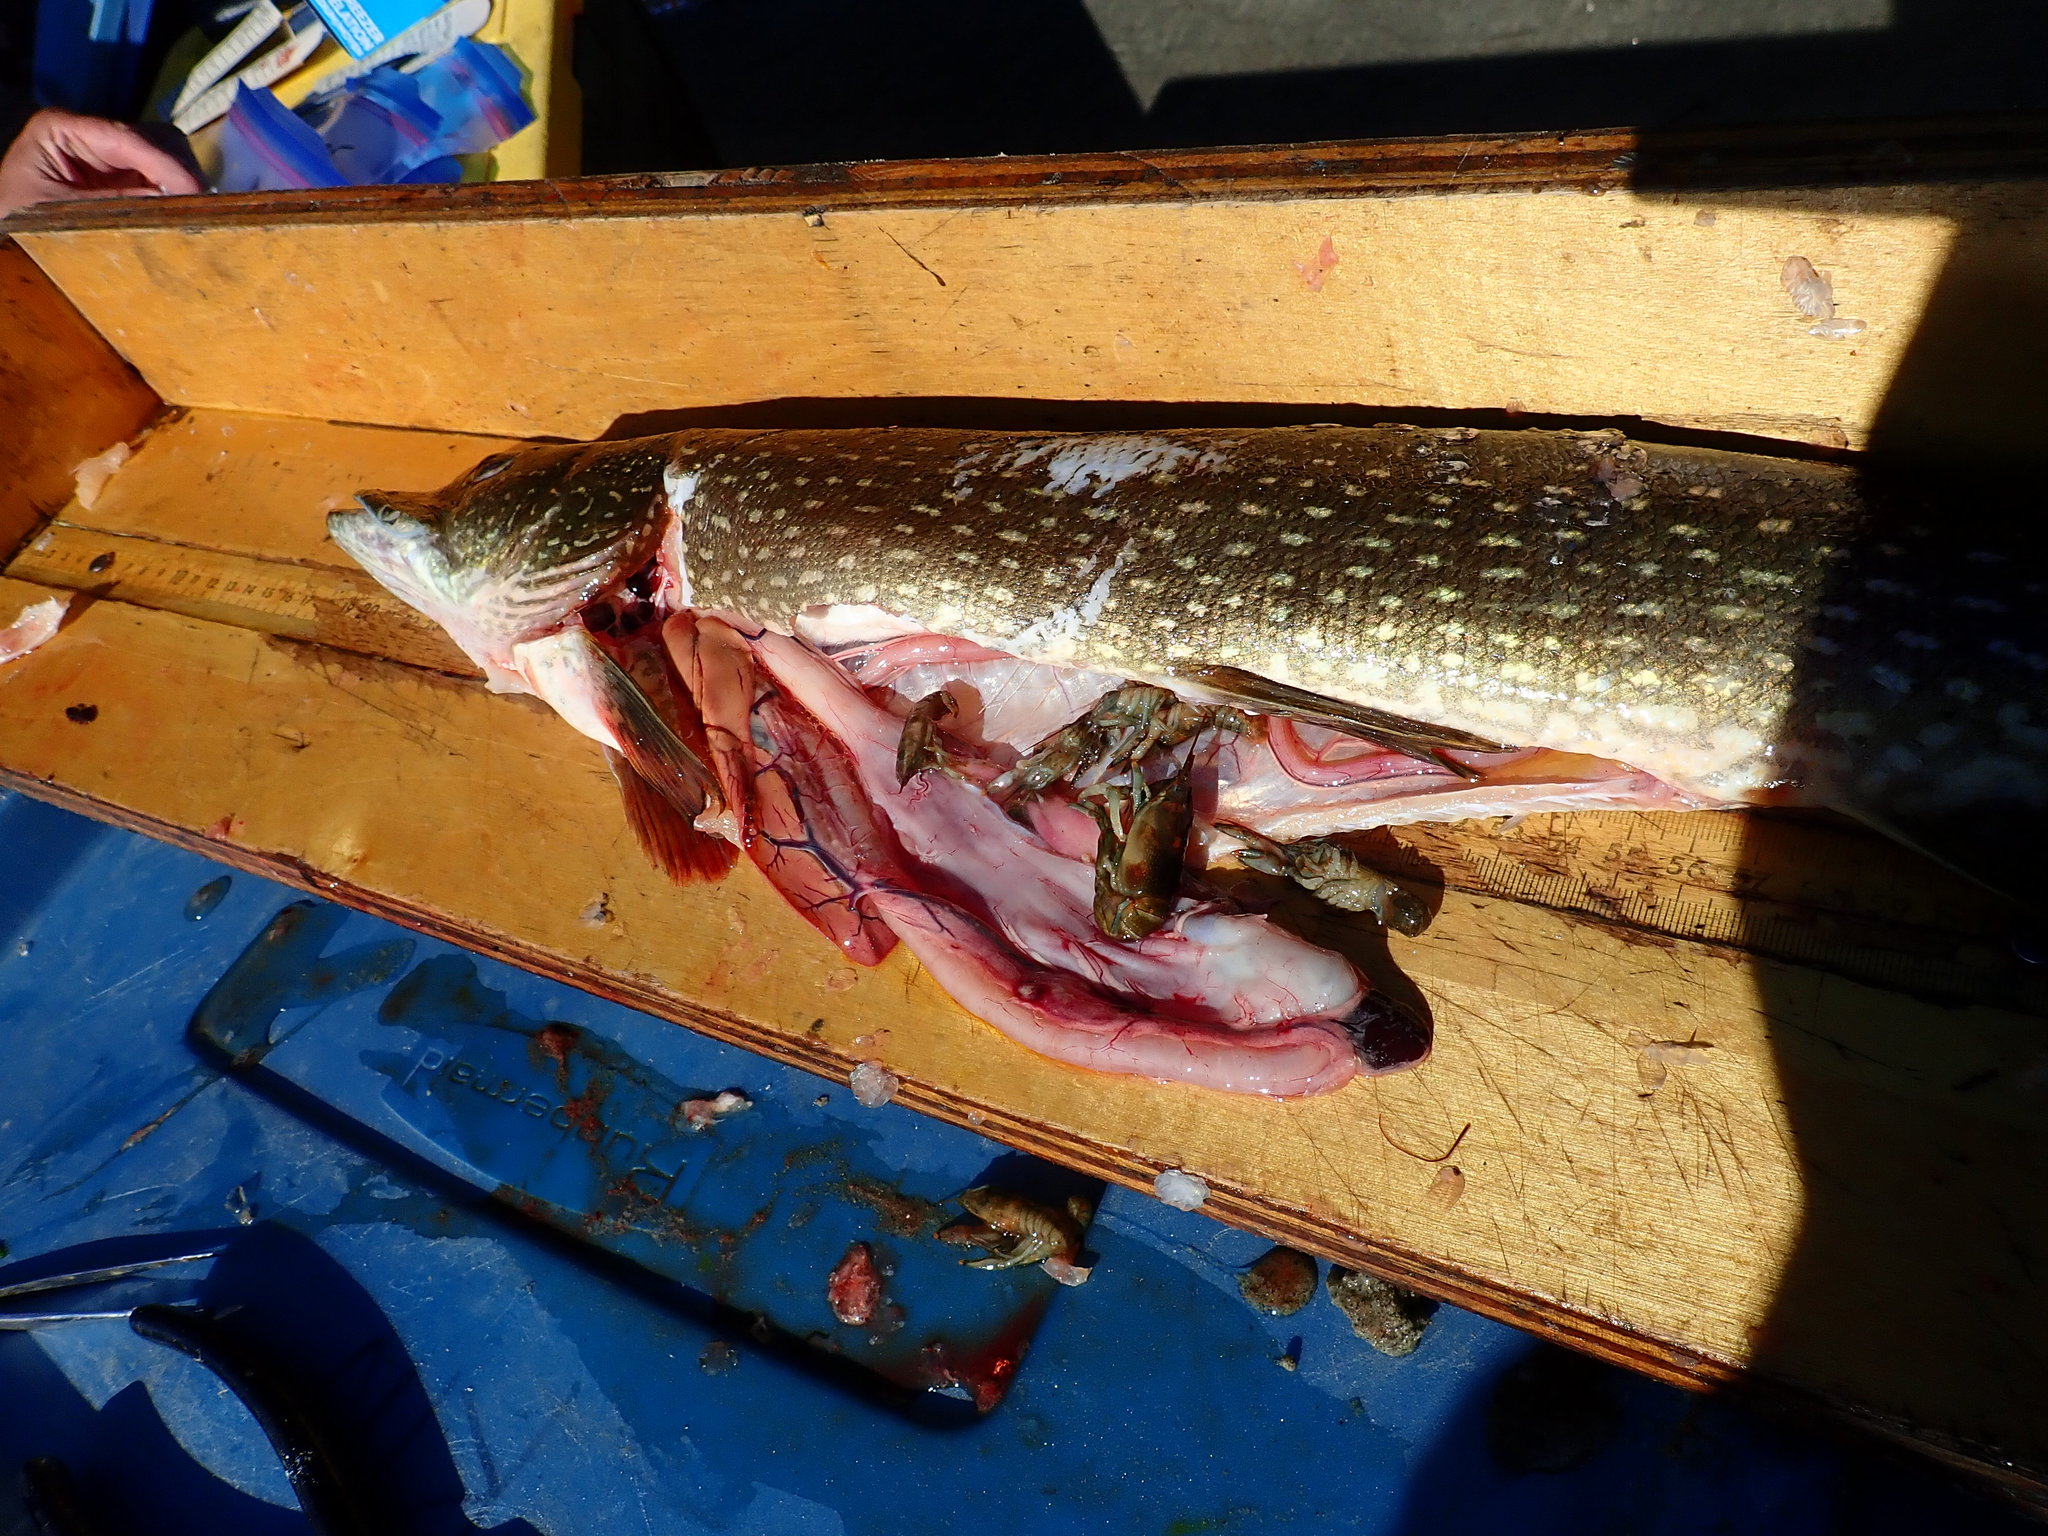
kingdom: Animalia
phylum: Chordata
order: Esociformes
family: Esocidae
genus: Esox
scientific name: Esox lucius
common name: Northern pike
